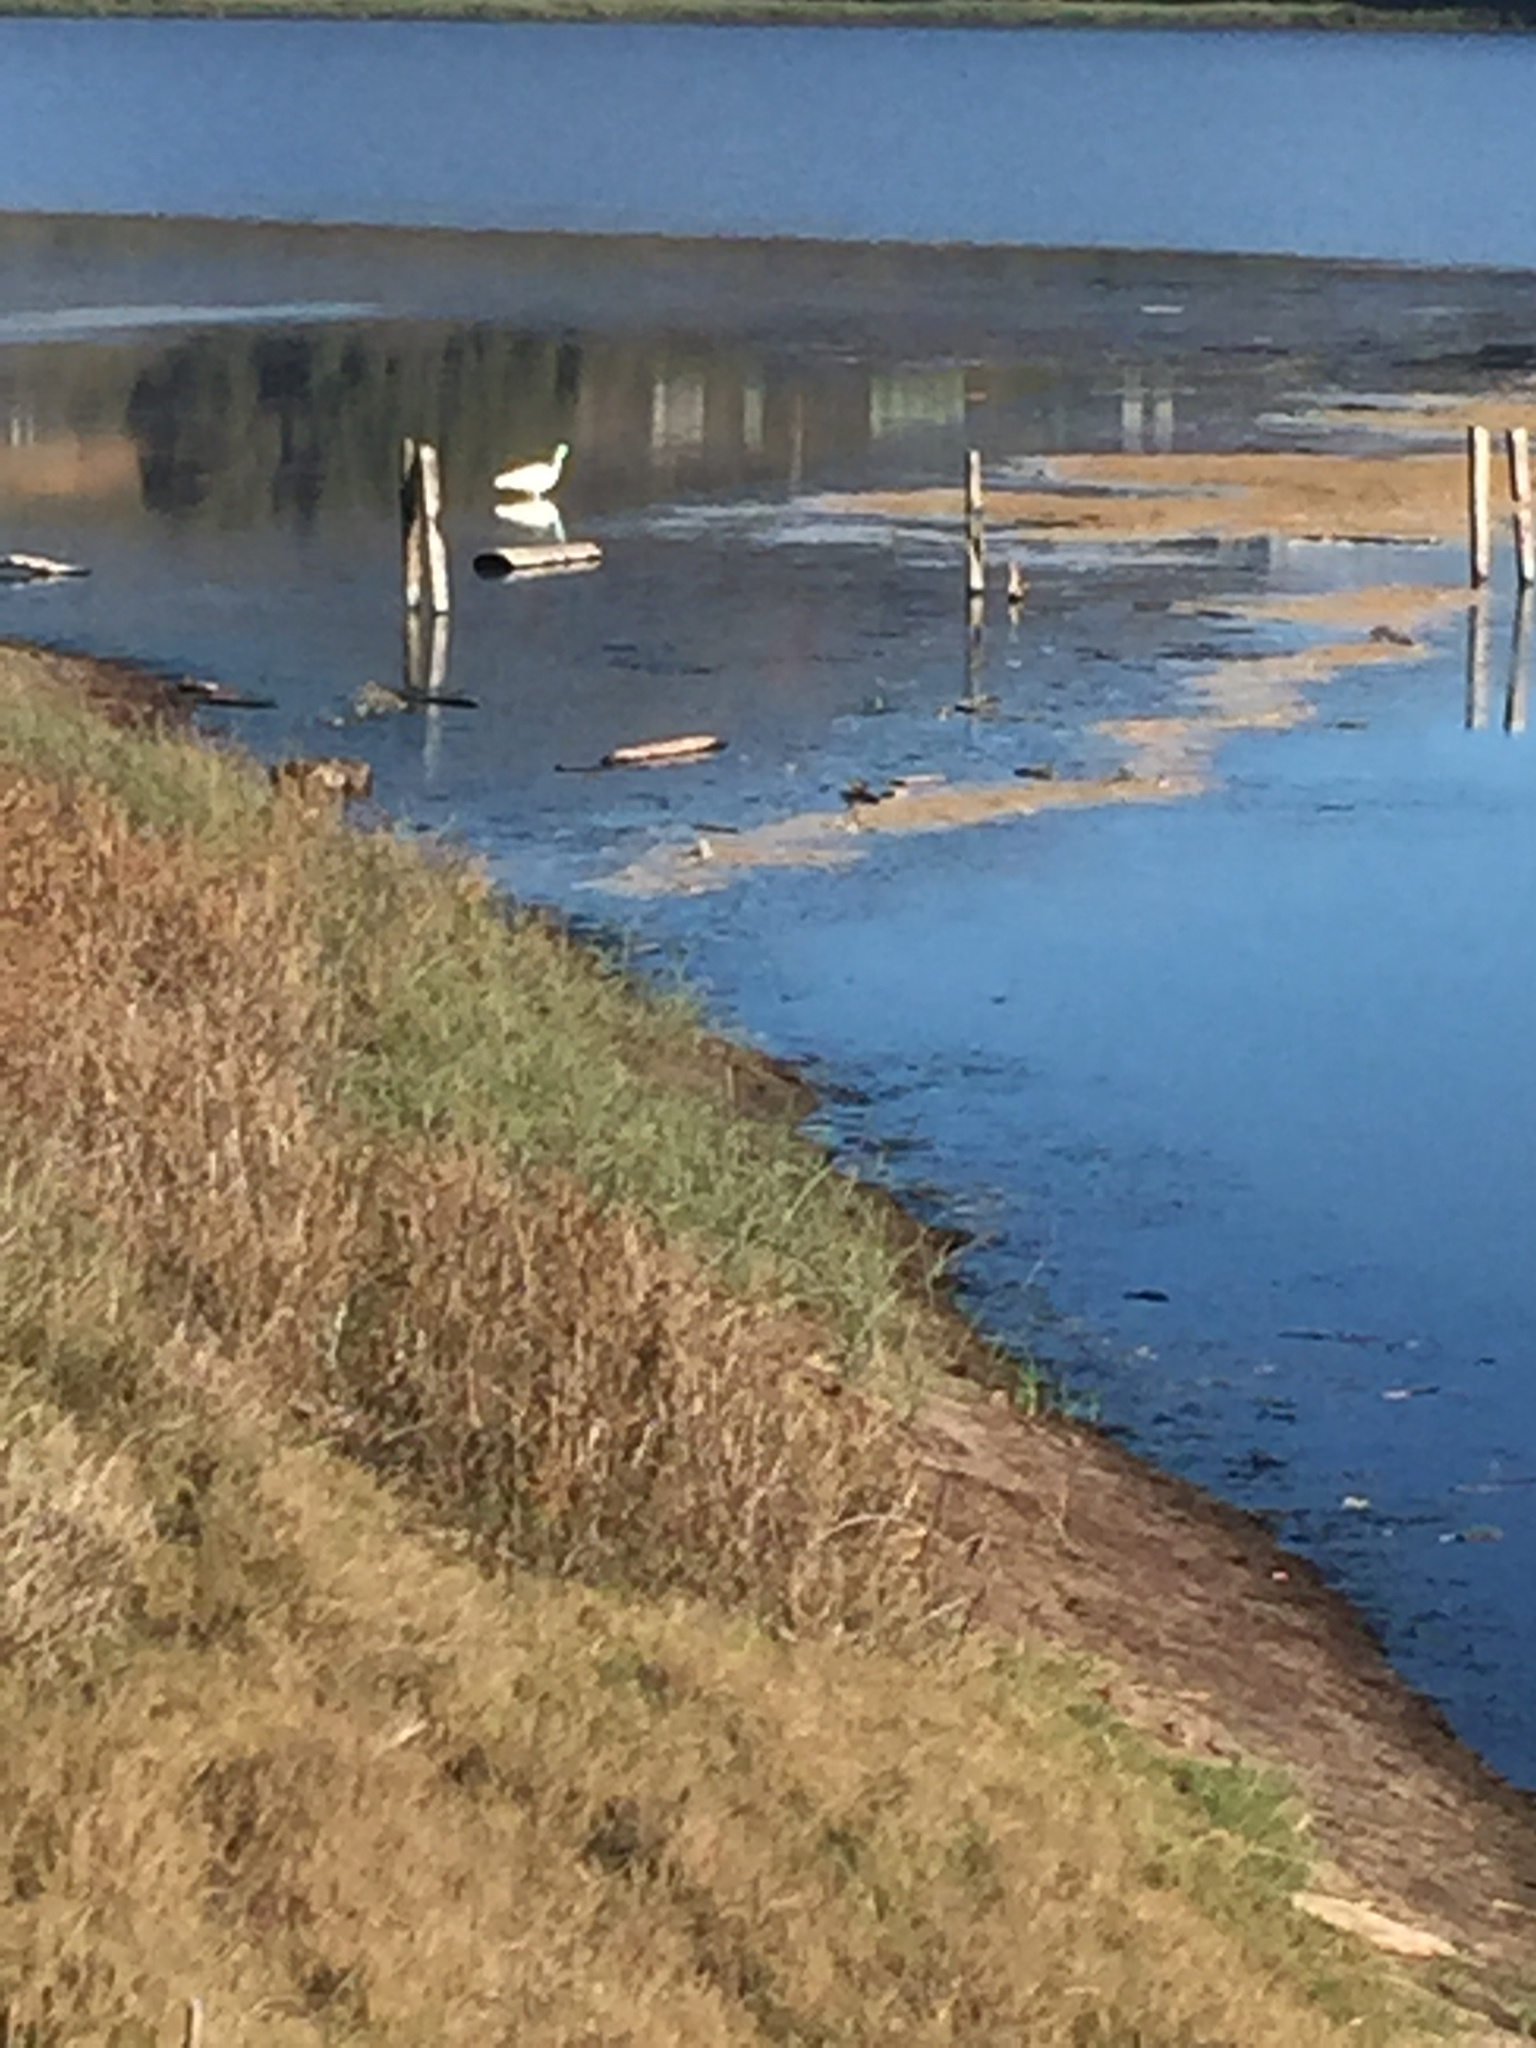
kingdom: Animalia
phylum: Chordata
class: Aves
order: Pelecaniformes
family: Ardeidae
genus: Ardea
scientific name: Ardea alba
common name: Great egret
